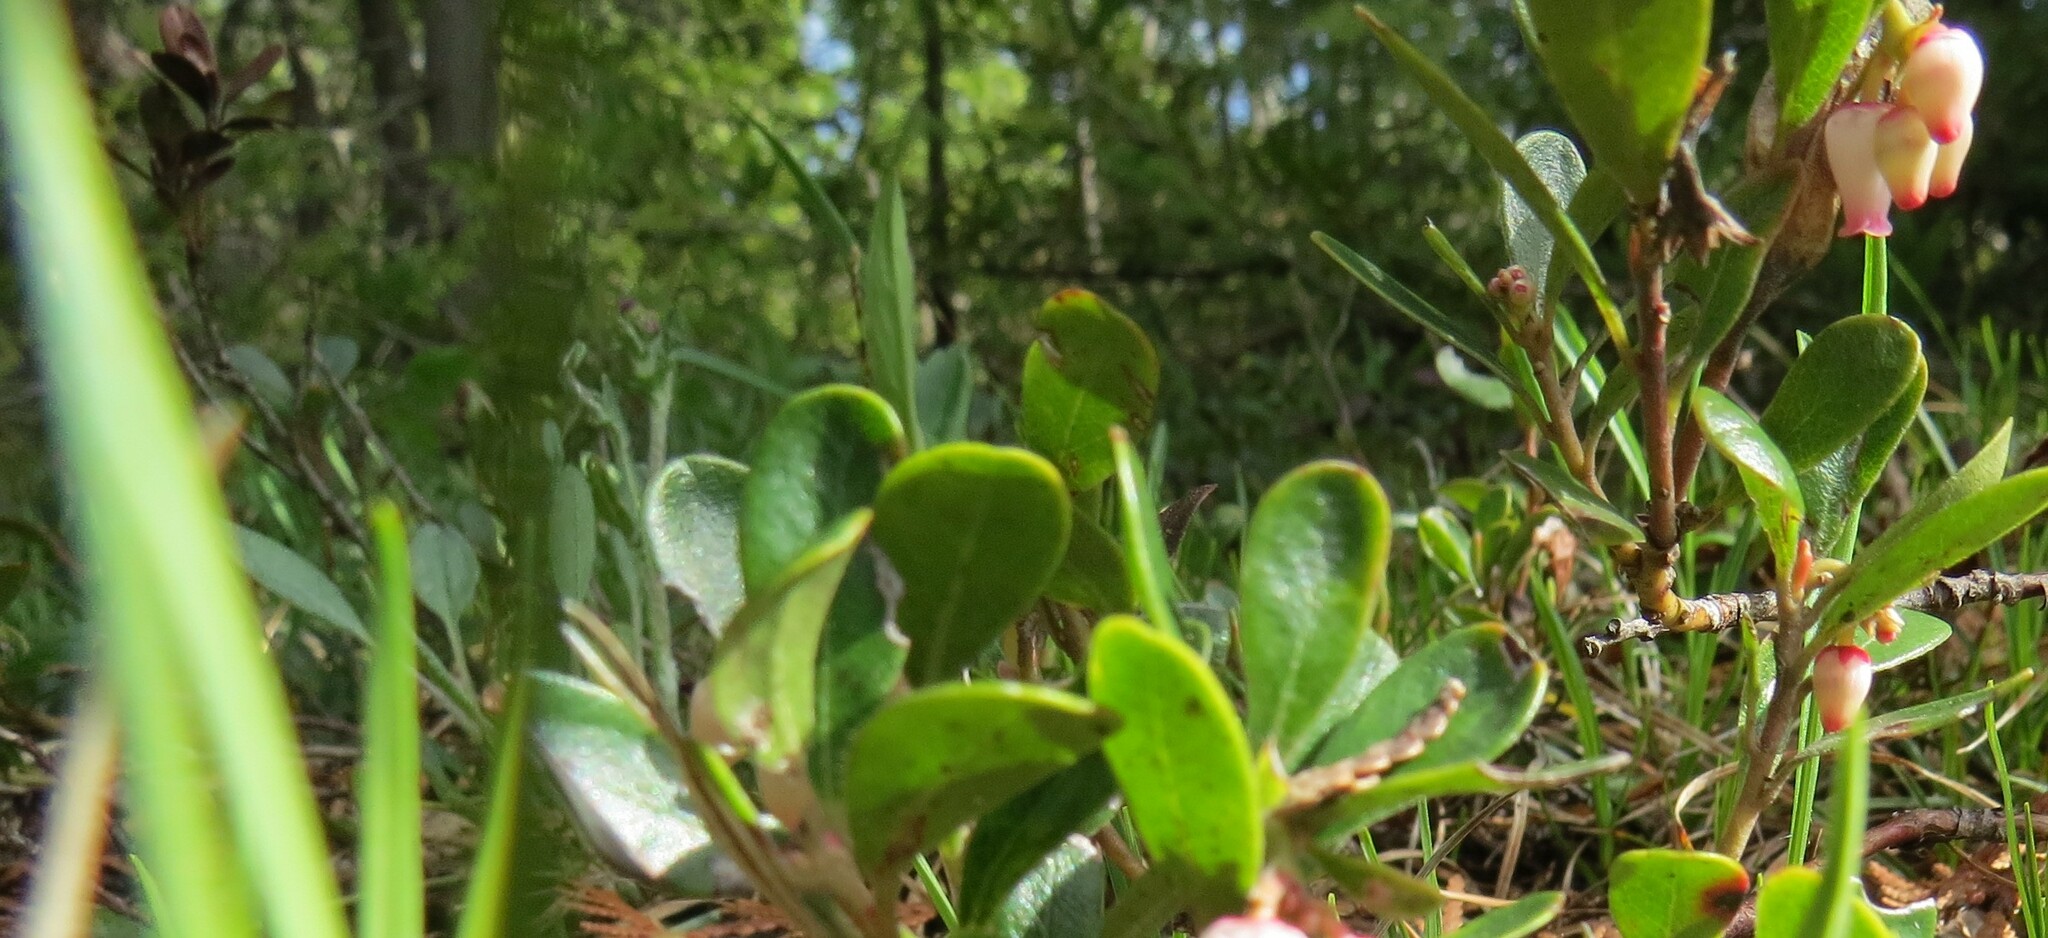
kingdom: Plantae
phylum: Tracheophyta
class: Magnoliopsida
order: Ericales
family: Ericaceae
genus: Arctostaphylos
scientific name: Arctostaphylos uva-ursi
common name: Bearberry
